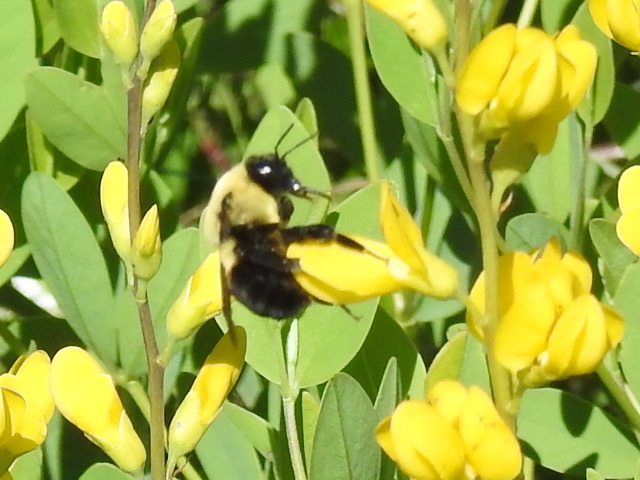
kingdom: Animalia
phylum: Arthropoda
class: Insecta
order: Hymenoptera
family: Apidae
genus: Bombus
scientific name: Bombus griseocollis
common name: Brown-belted bumble bee
